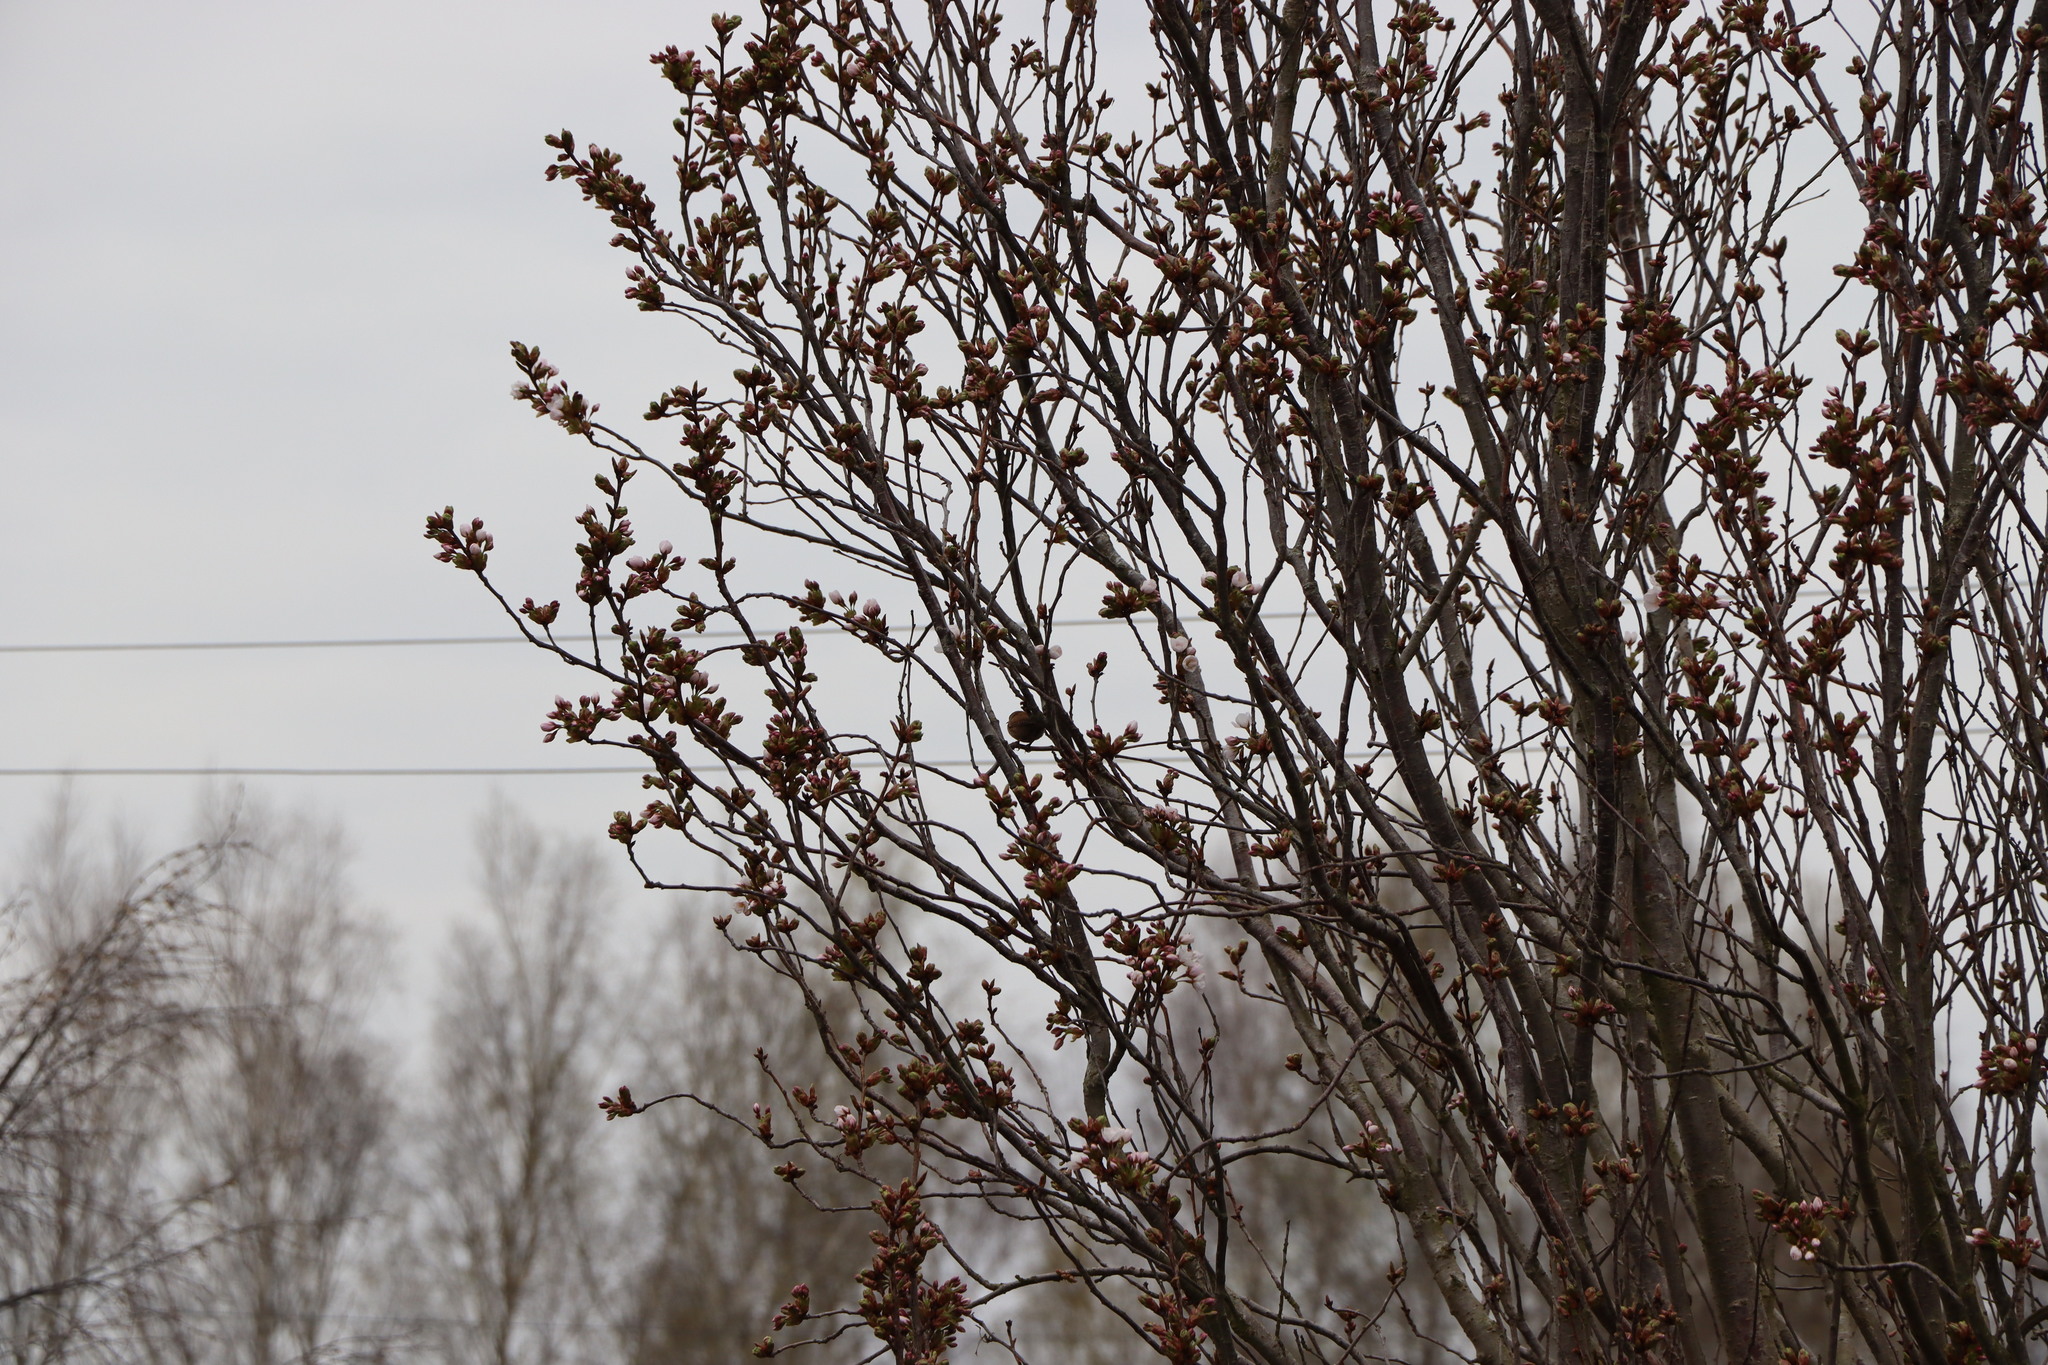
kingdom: Animalia
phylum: Chordata
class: Aves
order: Passeriformes
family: Troglodytidae
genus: Troglodytes
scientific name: Troglodytes troglodytes
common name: Eurasian wren
